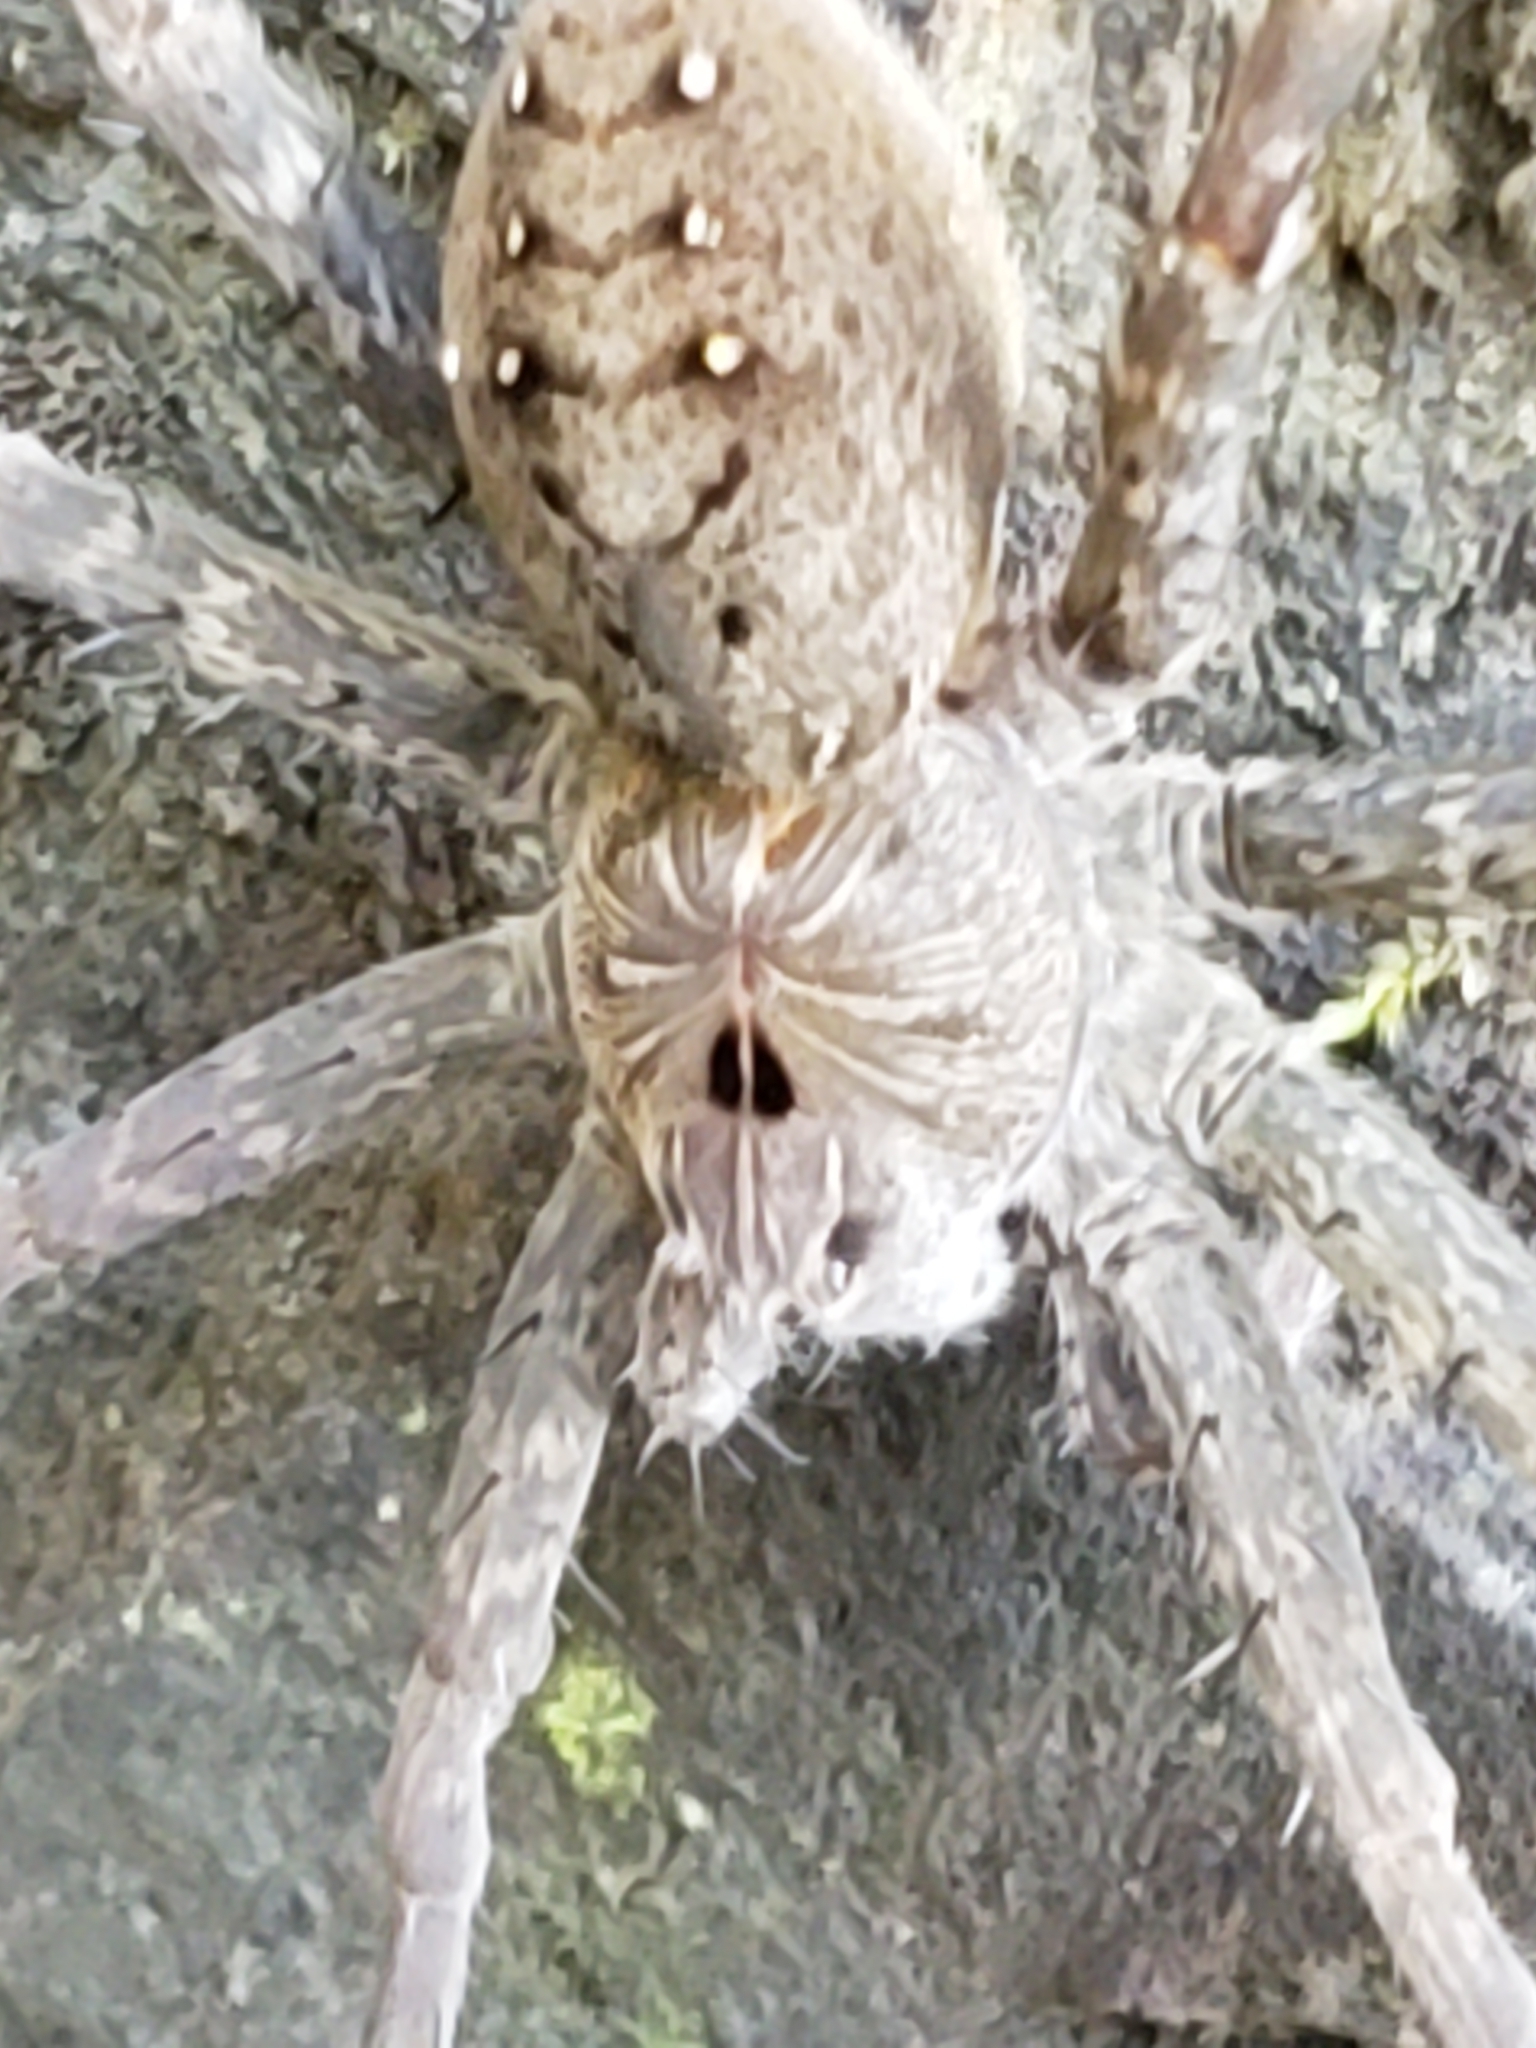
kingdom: Animalia
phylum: Arthropoda
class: Arachnida
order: Araneae
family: Pisauridae
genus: Dolomedes
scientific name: Dolomedes vittatus
